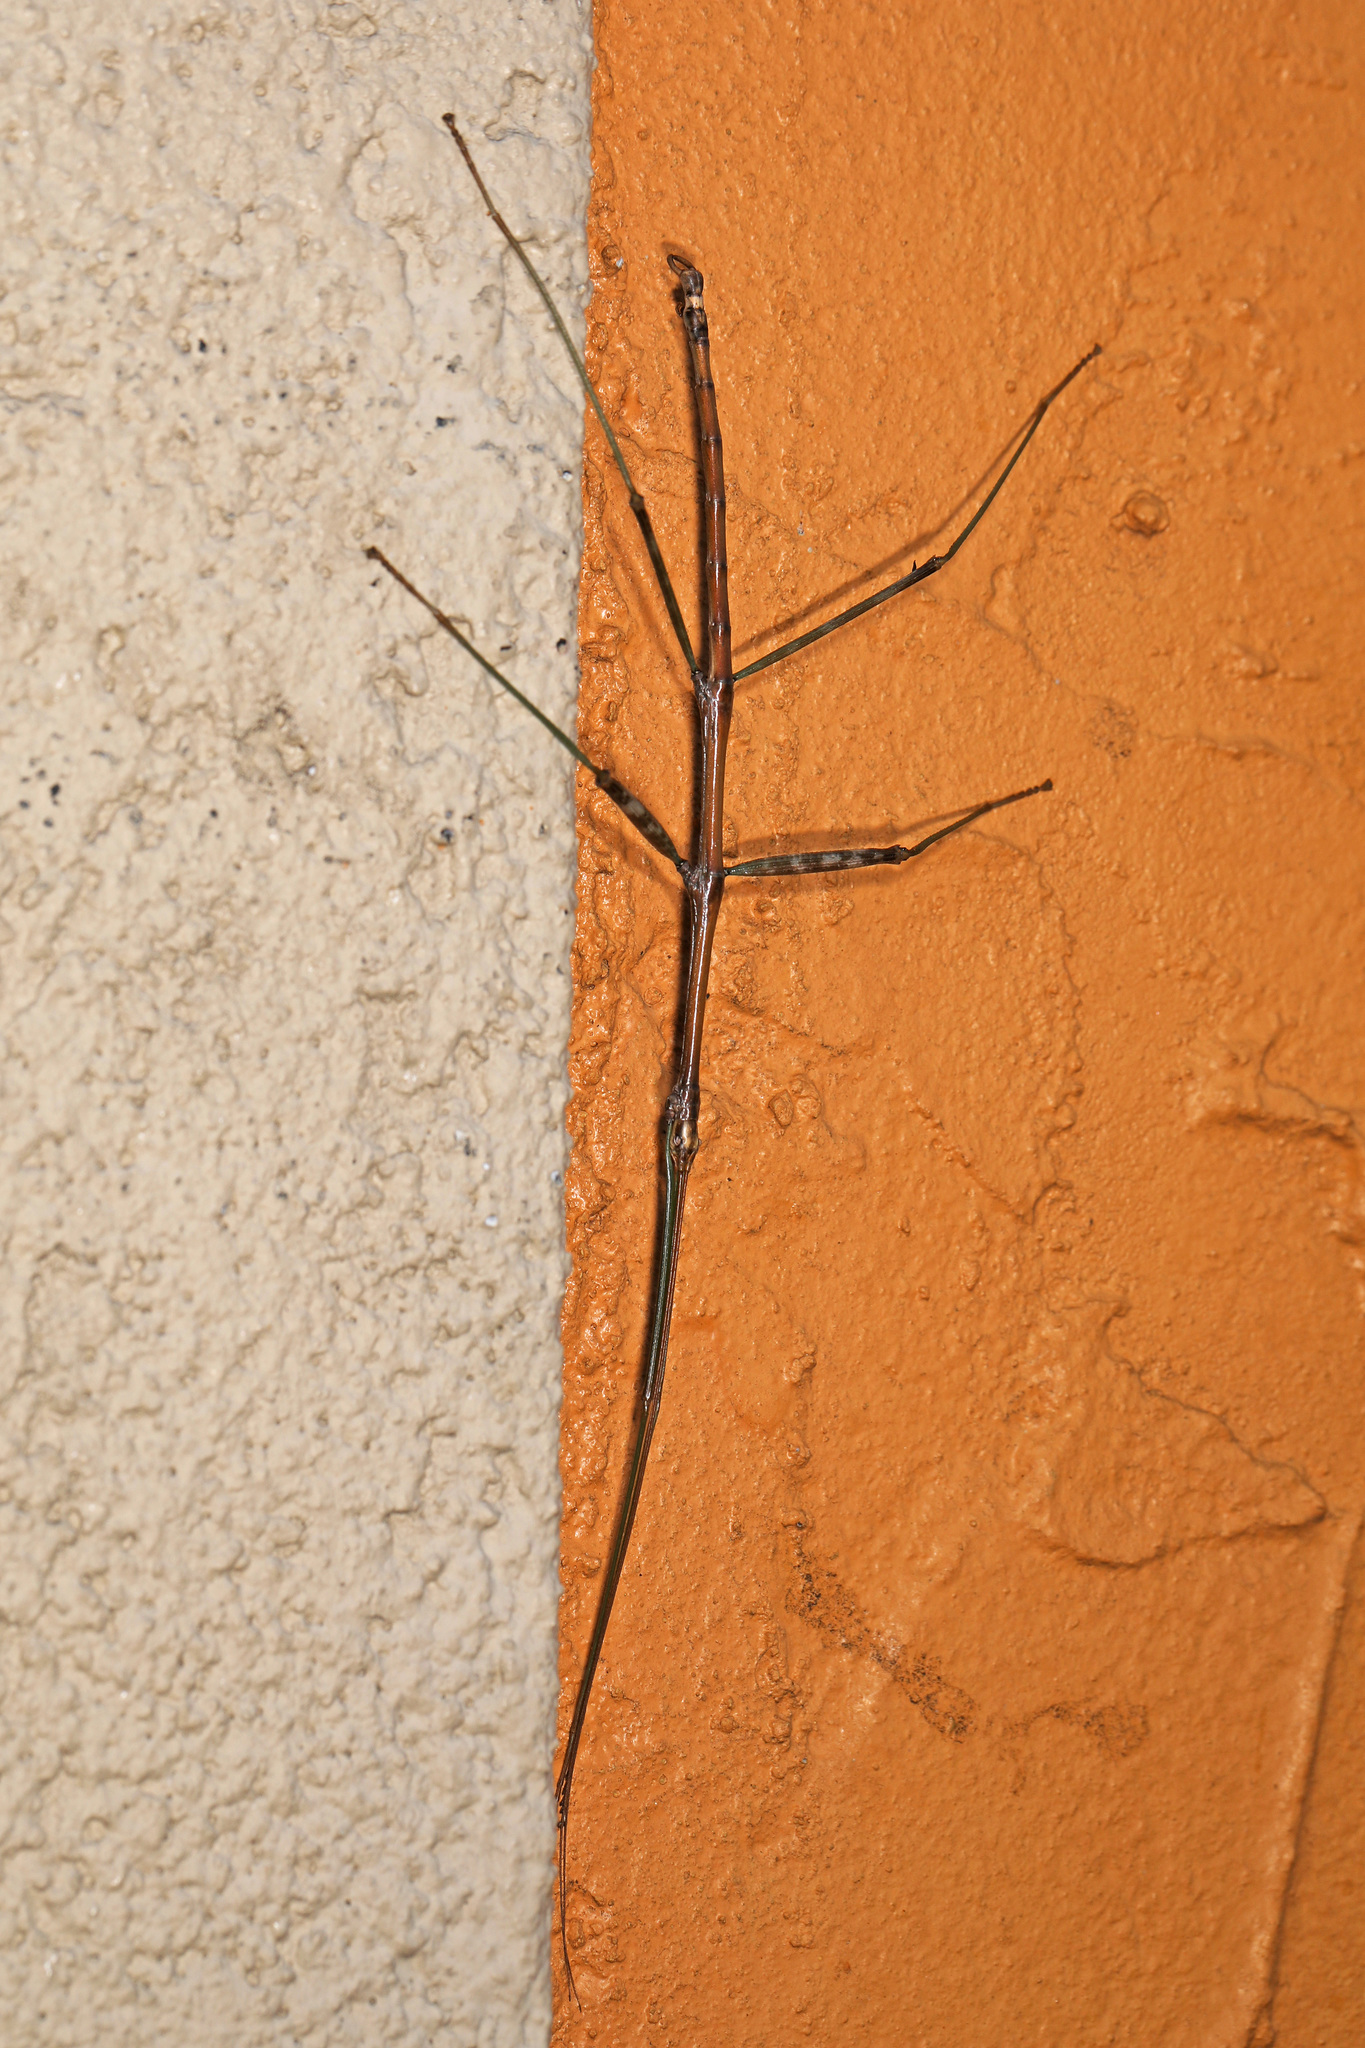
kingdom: Animalia
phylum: Arthropoda
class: Insecta
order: Phasmida
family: Diapheromeridae
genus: Diapheromera
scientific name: Diapheromera femorata
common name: Common american walkingstick
